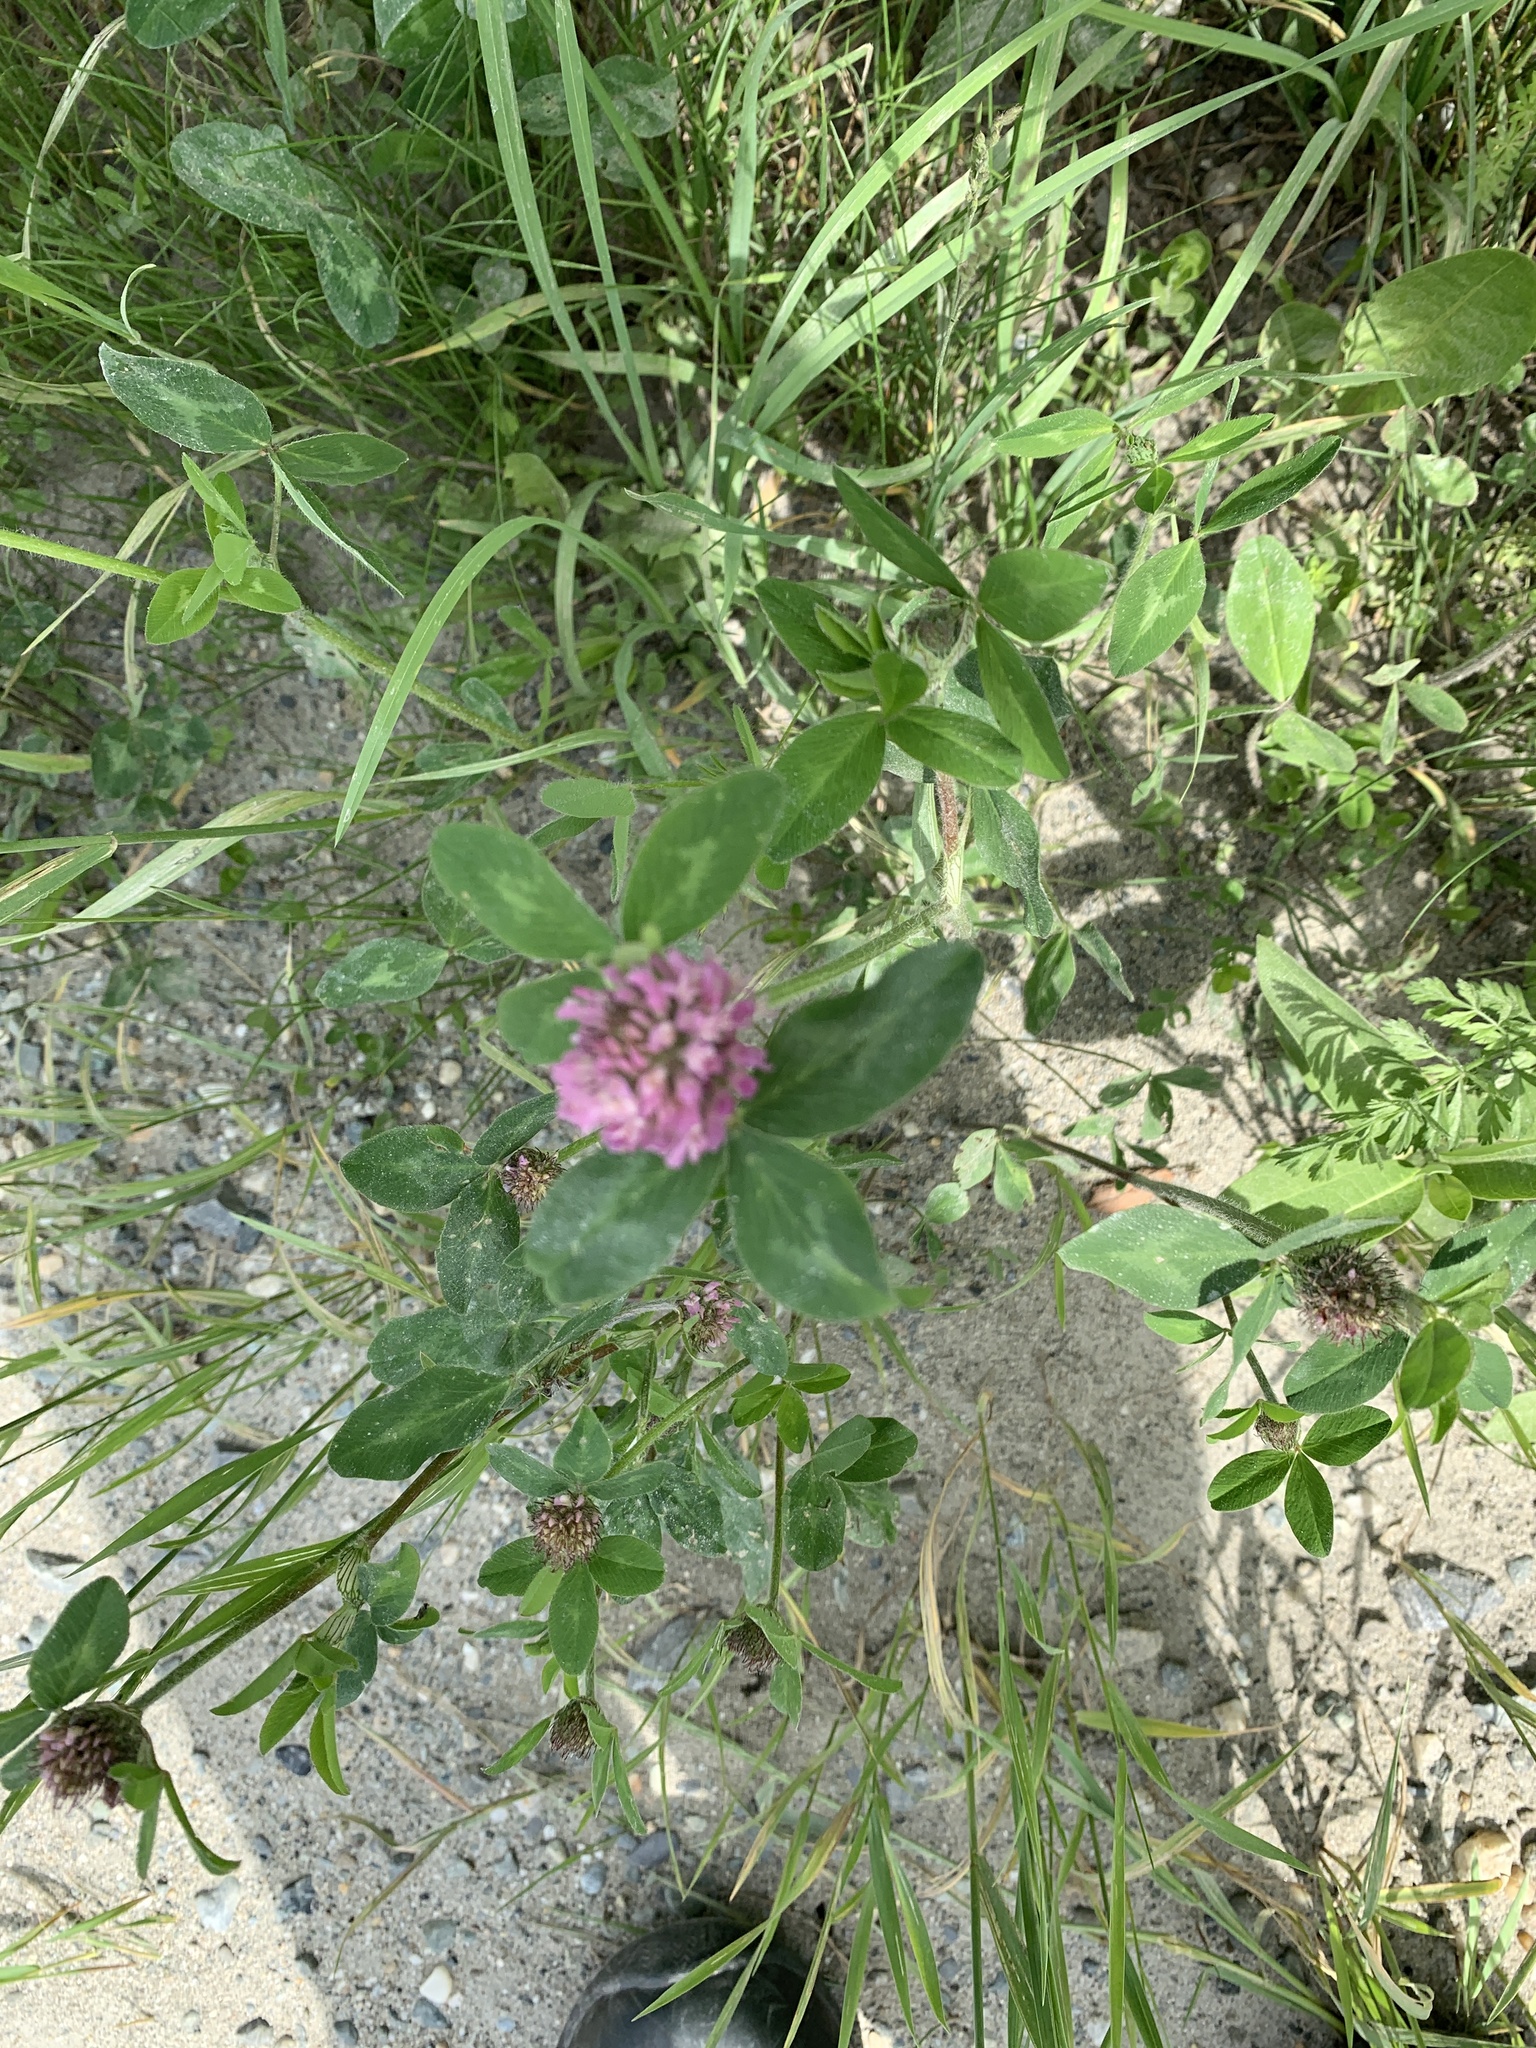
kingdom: Plantae
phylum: Tracheophyta
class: Magnoliopsida
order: Fabales
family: Fabaceae
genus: Trifolium
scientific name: Trifolium pratense
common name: Red clover
